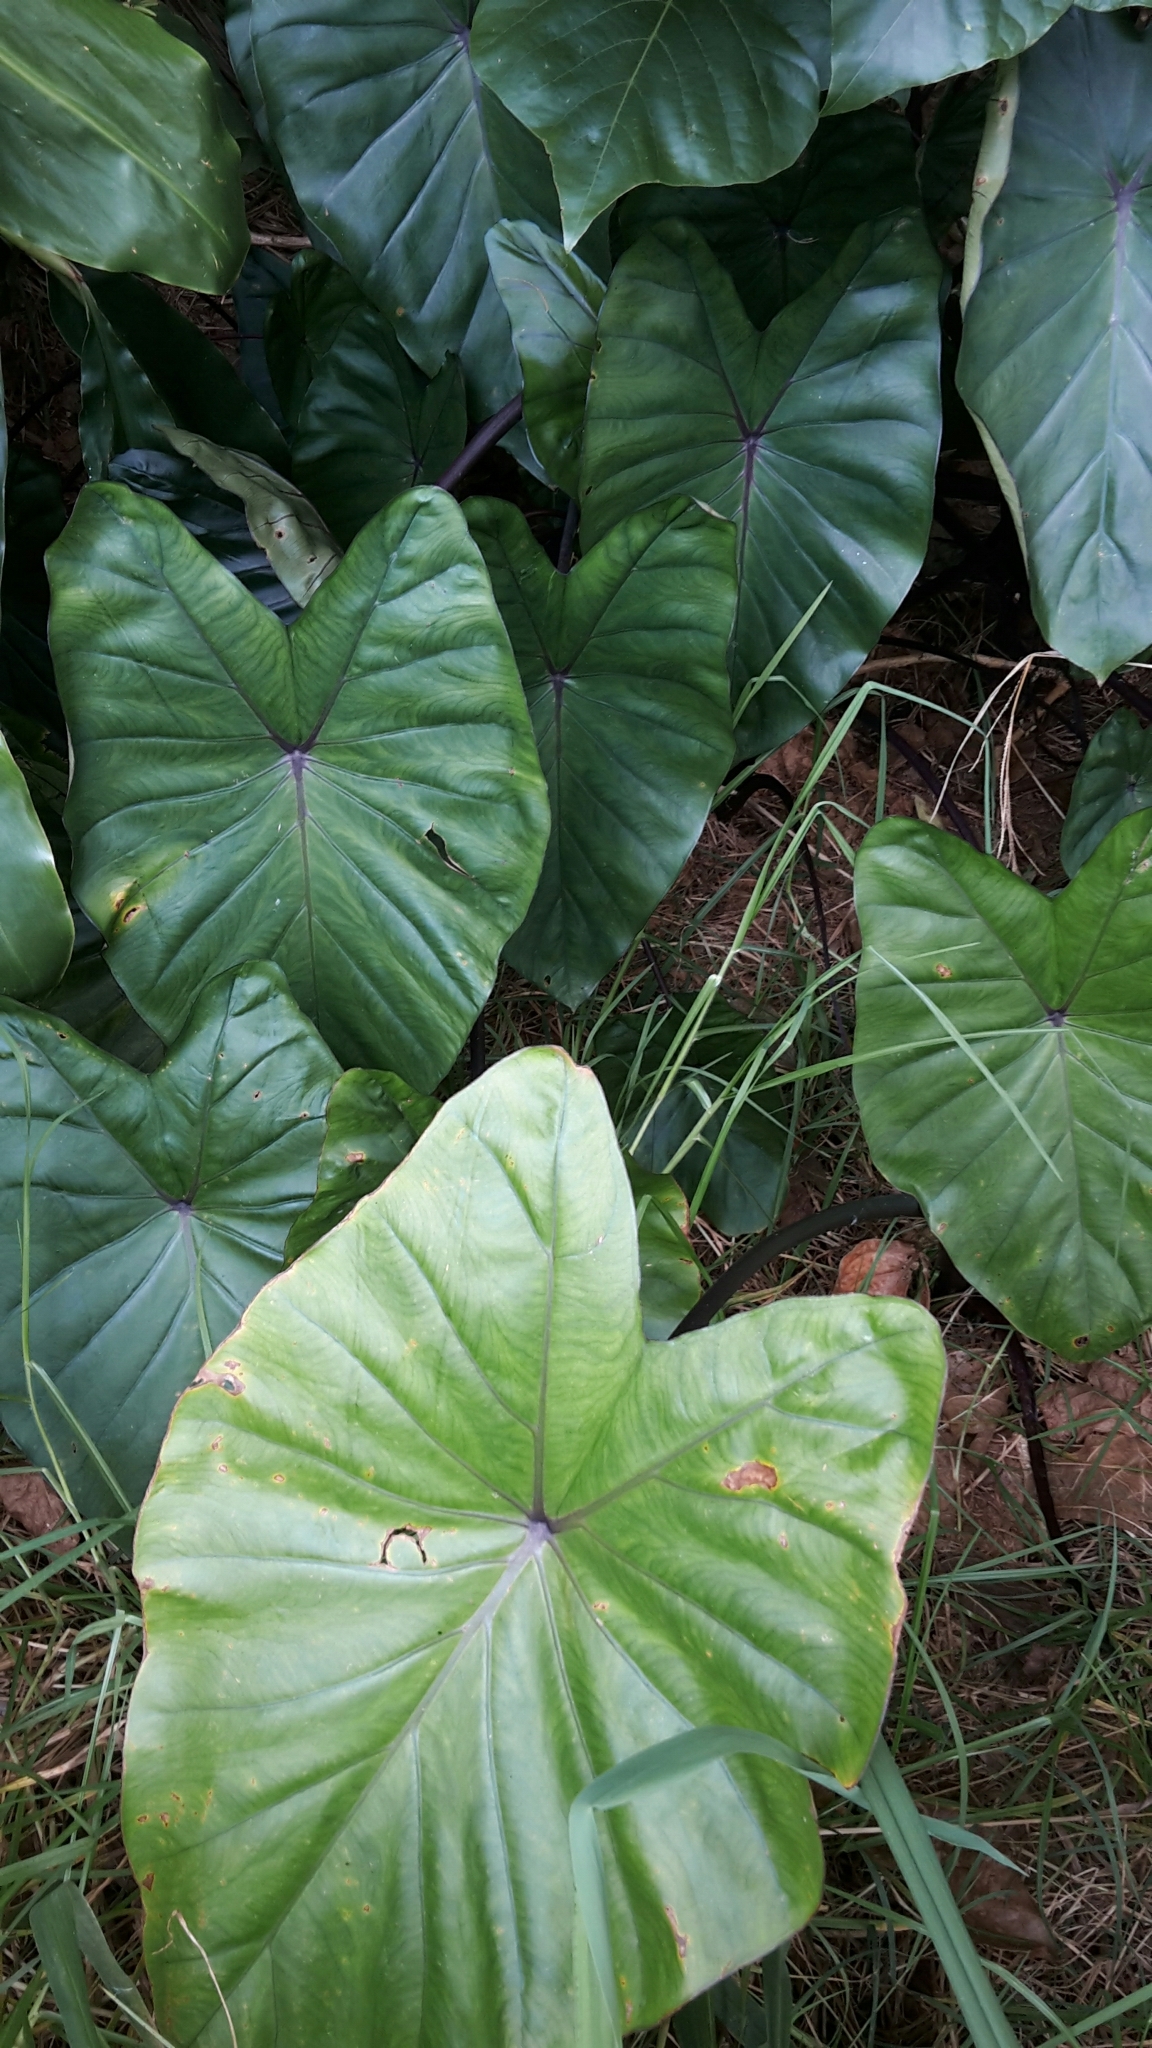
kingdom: Plantae
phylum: Tracheophyta
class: Liliopsida
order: Alismatales
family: Araceae
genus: Colocasia
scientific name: Colocasia esculenta
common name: Taro
